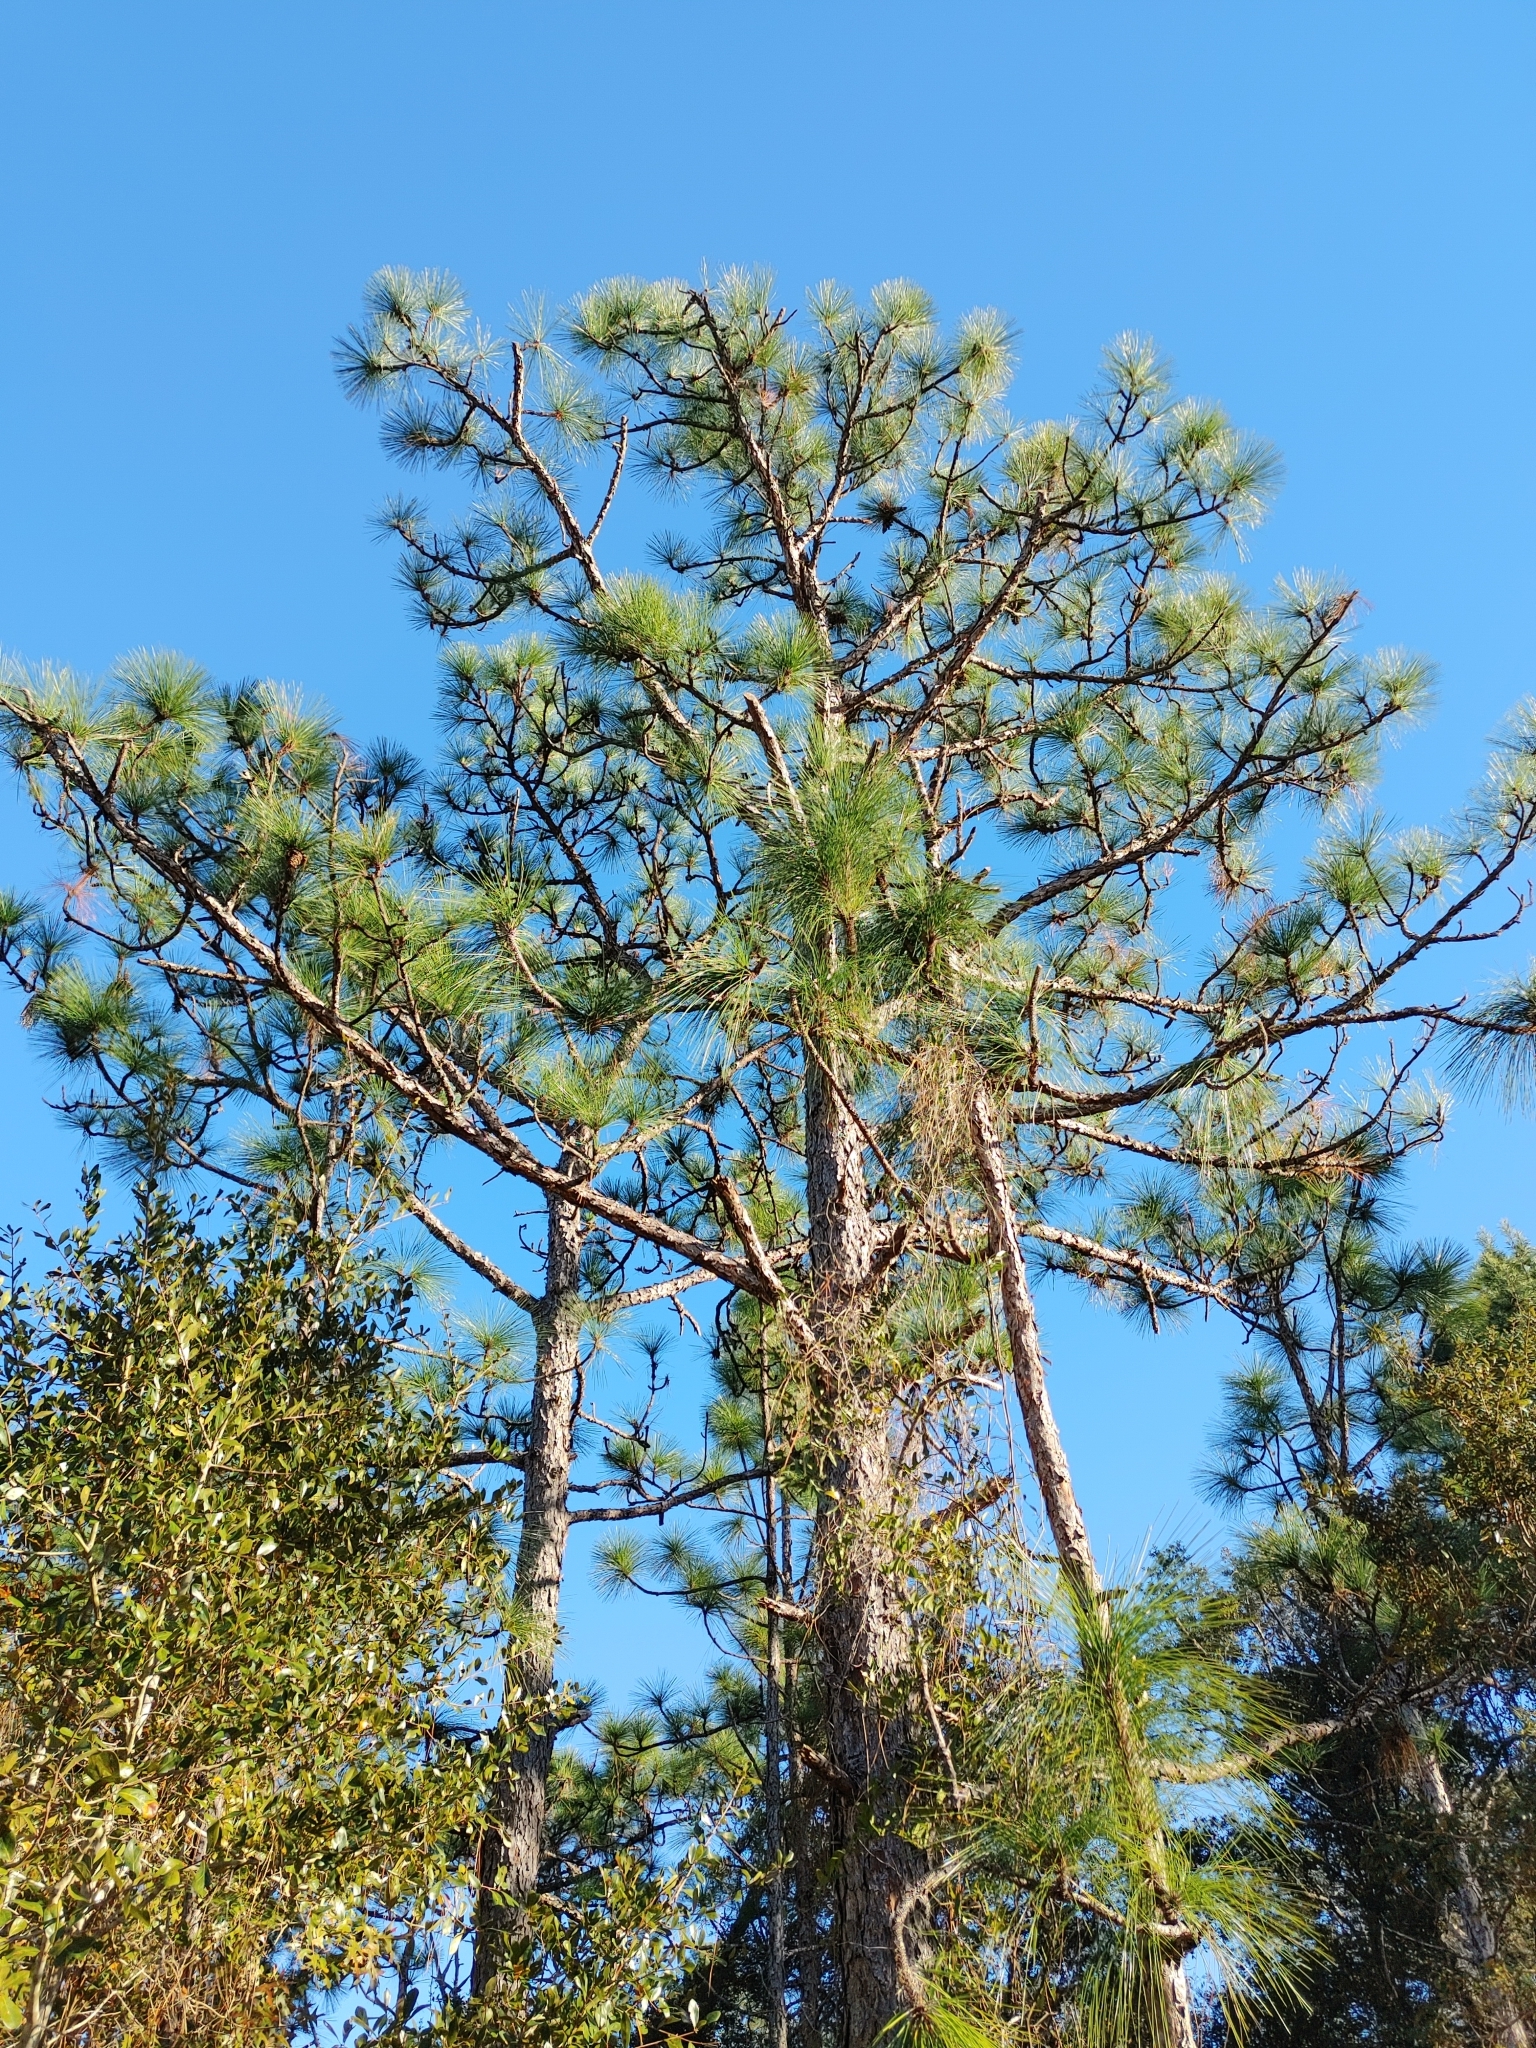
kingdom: Plantae
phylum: Tracheophyta
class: Pinopsida
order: Pinales
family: Pinaceae
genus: Pinus
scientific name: Pinus palustris
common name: Longleaf pine
